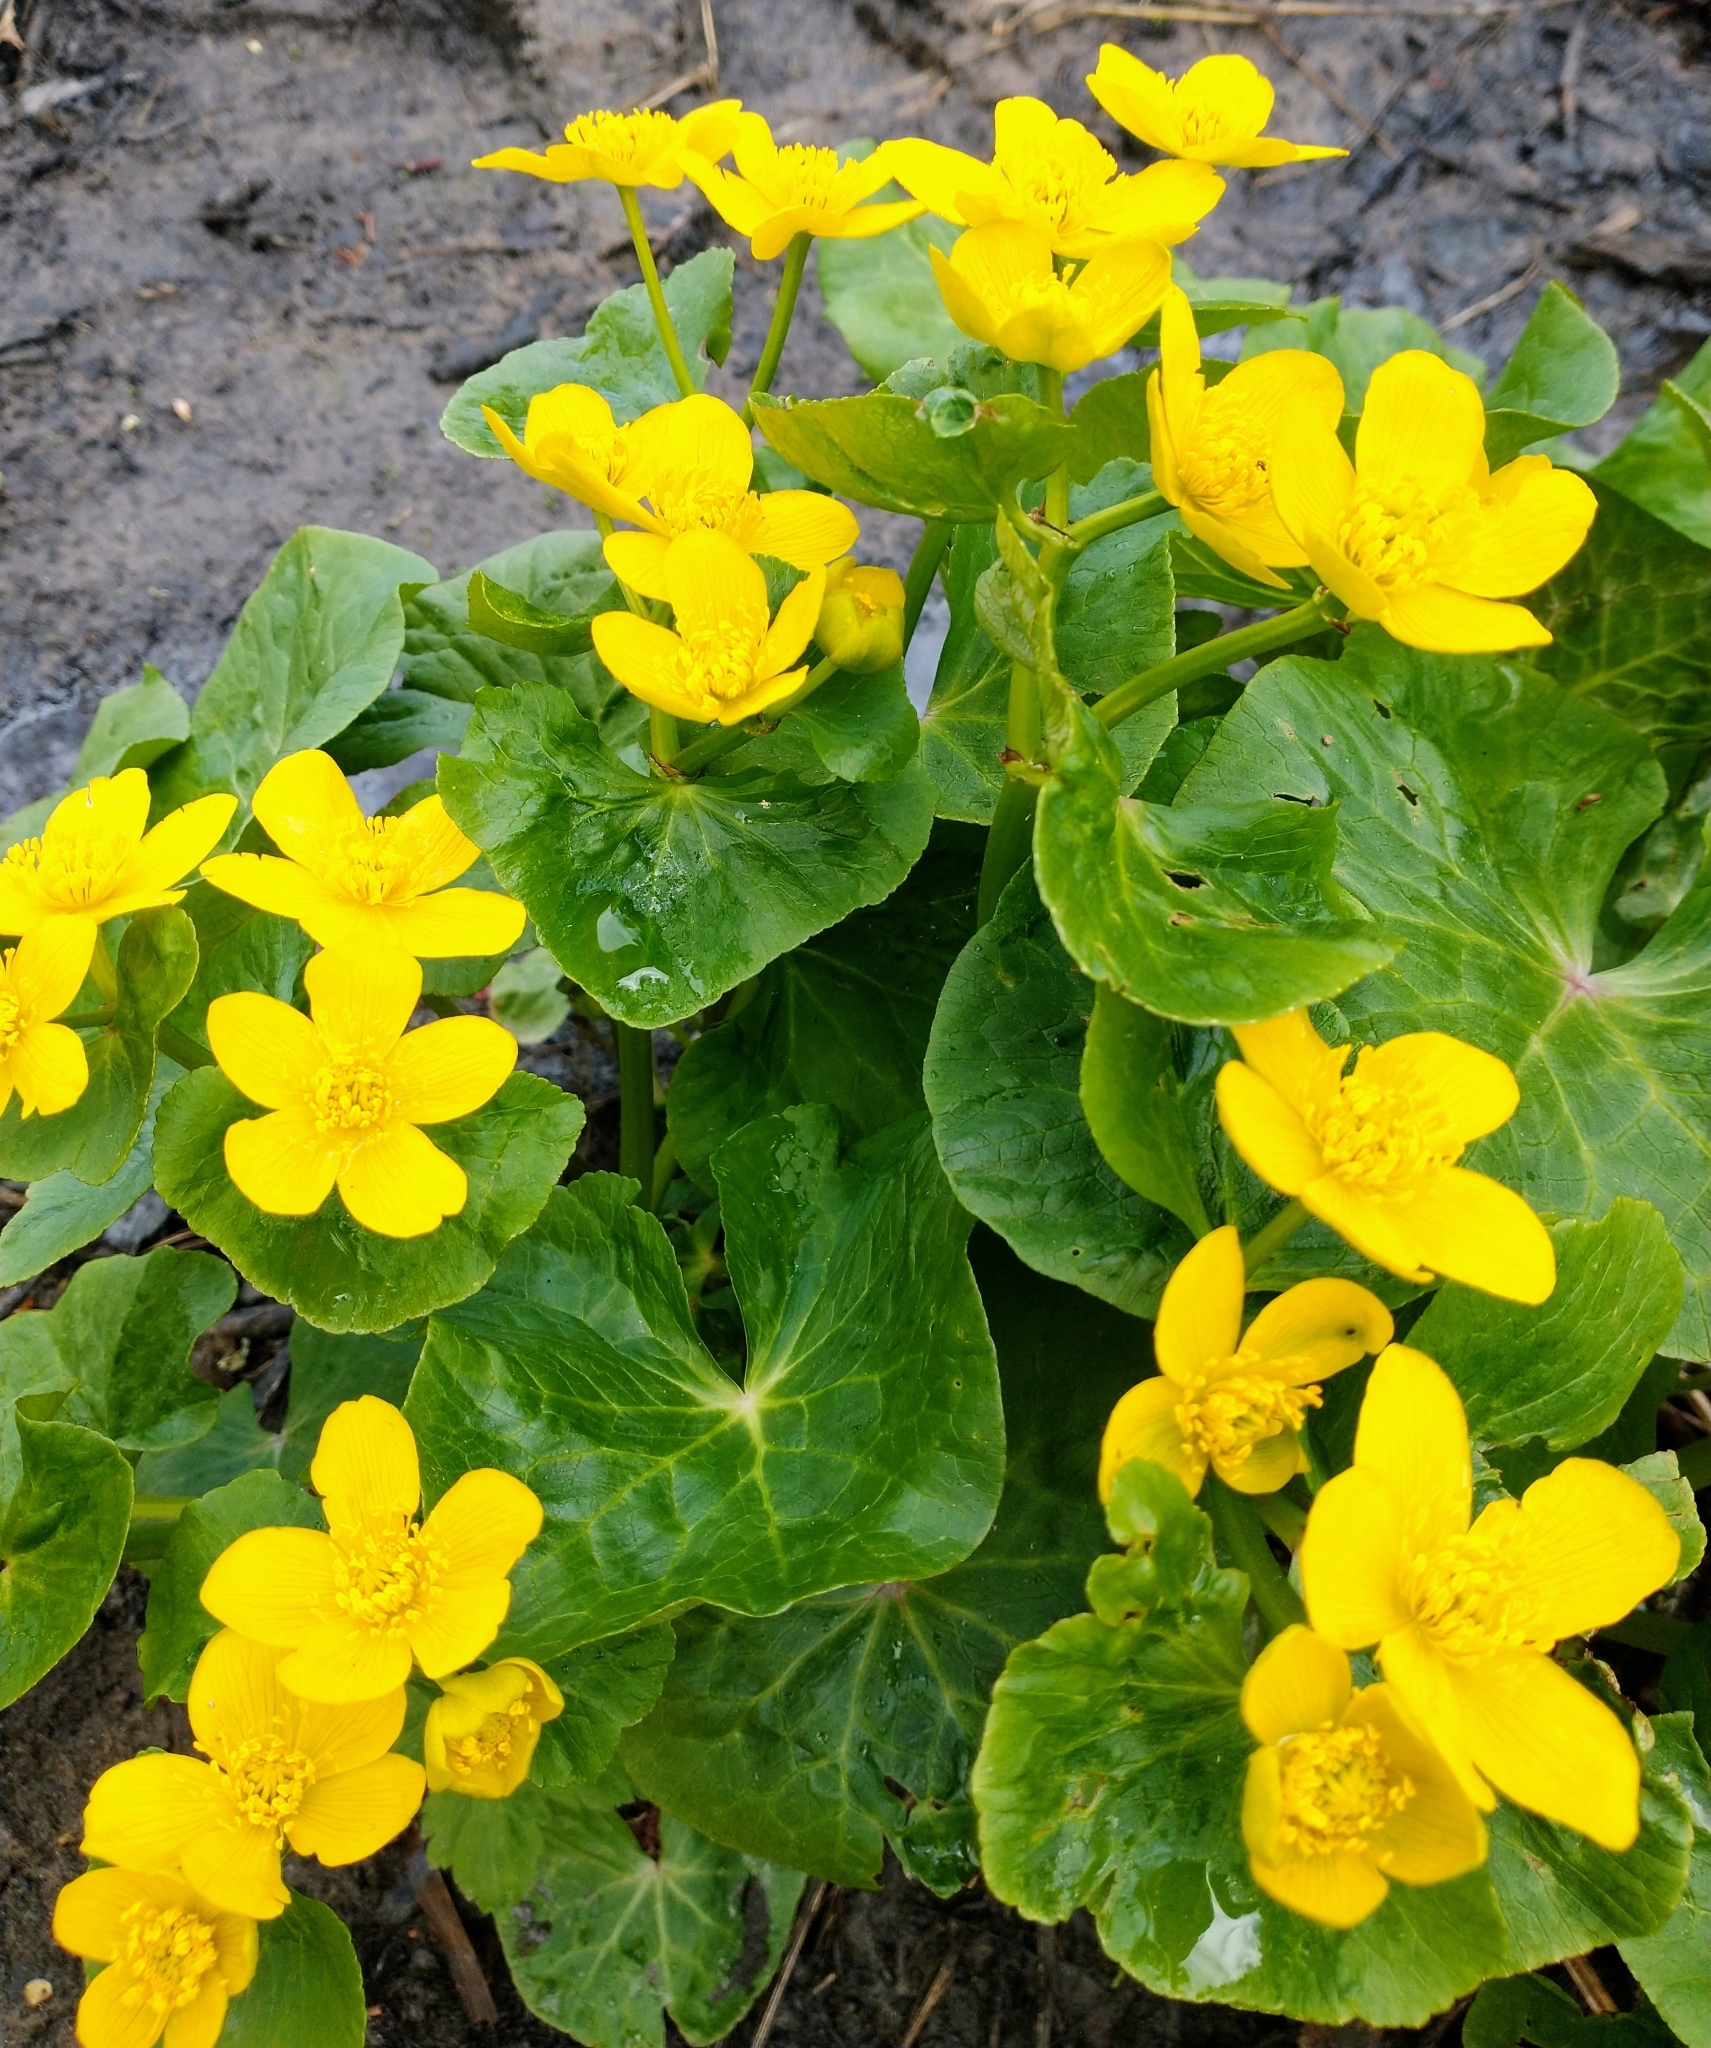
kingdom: Plantae
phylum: Tracheophyta
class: Magnoliopsida
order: Ranunculales
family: Ranunculaceae
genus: Caltha
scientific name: Caltha palustris
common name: Marsh marigold
